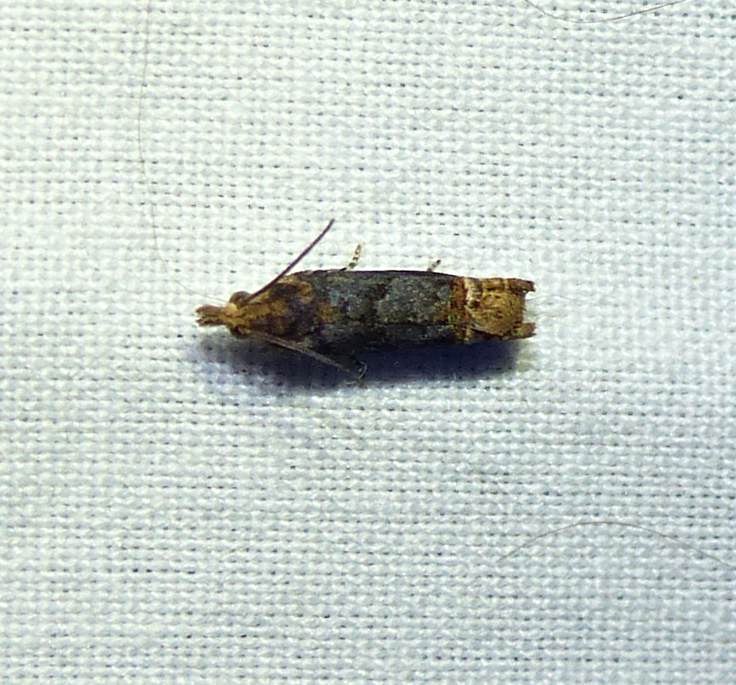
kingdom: Animalia
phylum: Arthropoda
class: Insecta
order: Lepidoptera
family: Tortricidae
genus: Eucosma
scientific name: Eucosma ochroterminana
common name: Buff-tipped eucosma moth
